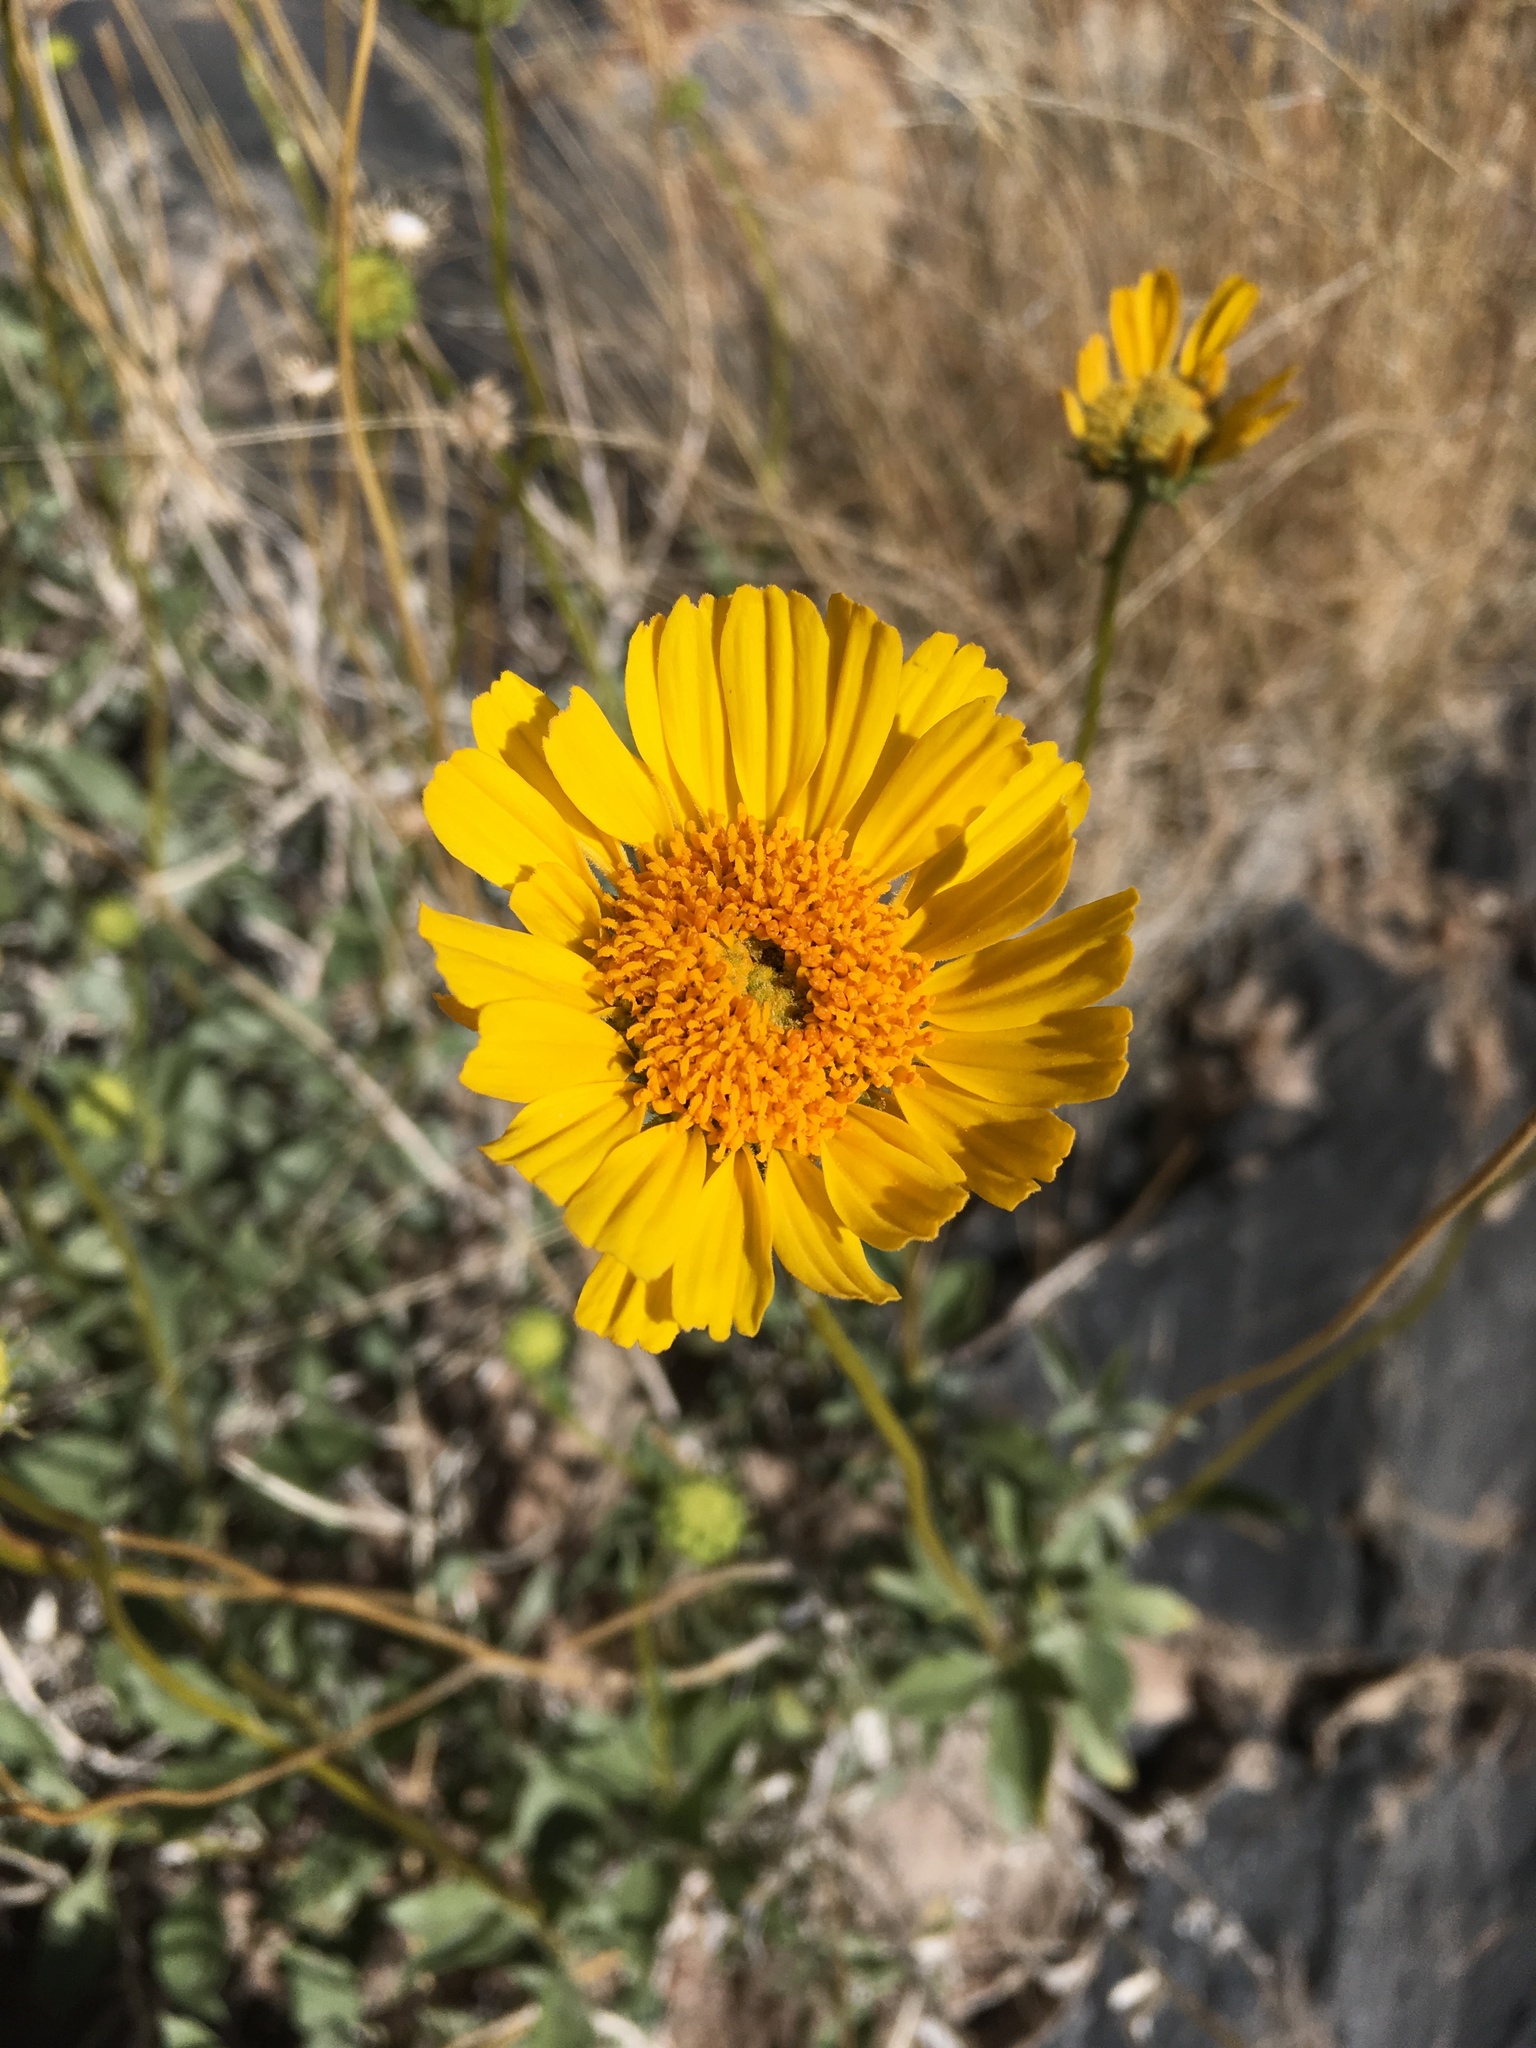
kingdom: Plantae
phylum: Tracheophyta
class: Magnoliopsida
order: Asterales
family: Asteraceae
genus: Encelia
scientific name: Encelia actoni
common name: Acton encelia
